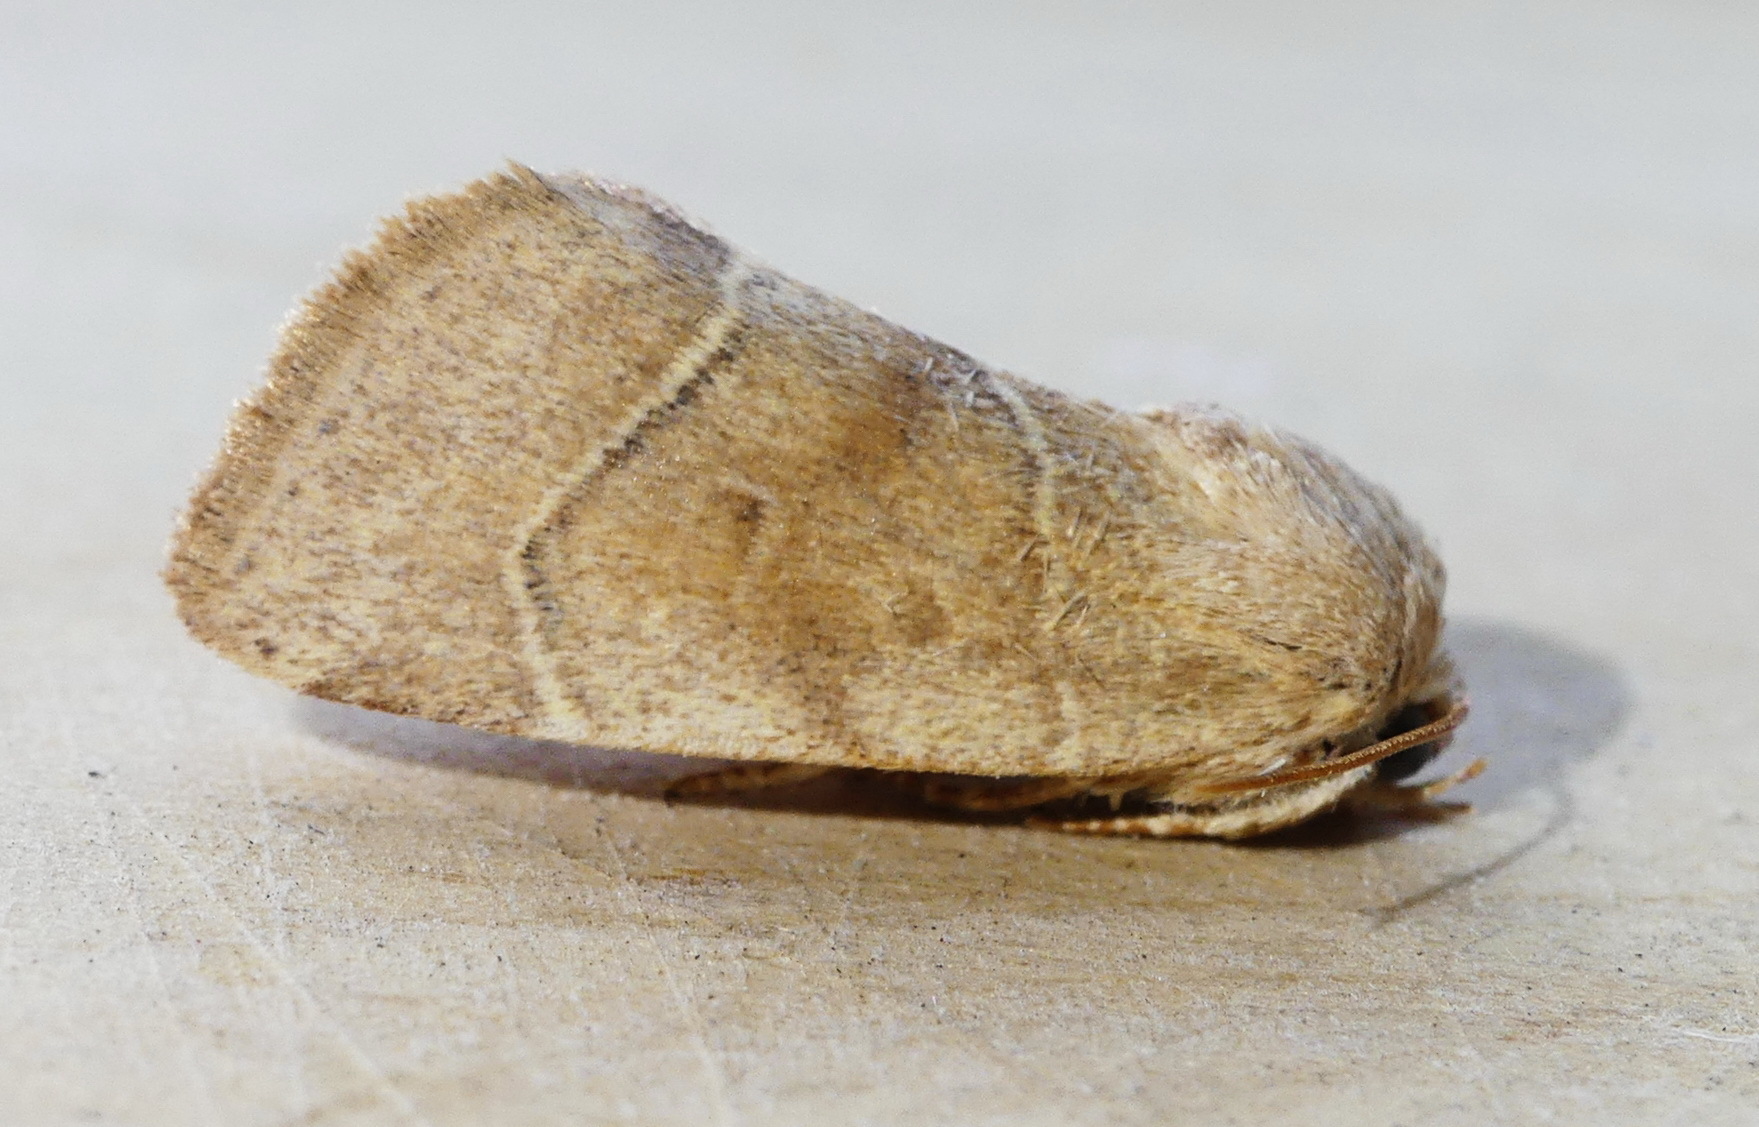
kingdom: Animalia
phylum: Arthropoda
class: Insecta
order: Lepidoptera
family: Noctuidae
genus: Cosmia
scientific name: Cosmia calami
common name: American dun-bar moth
